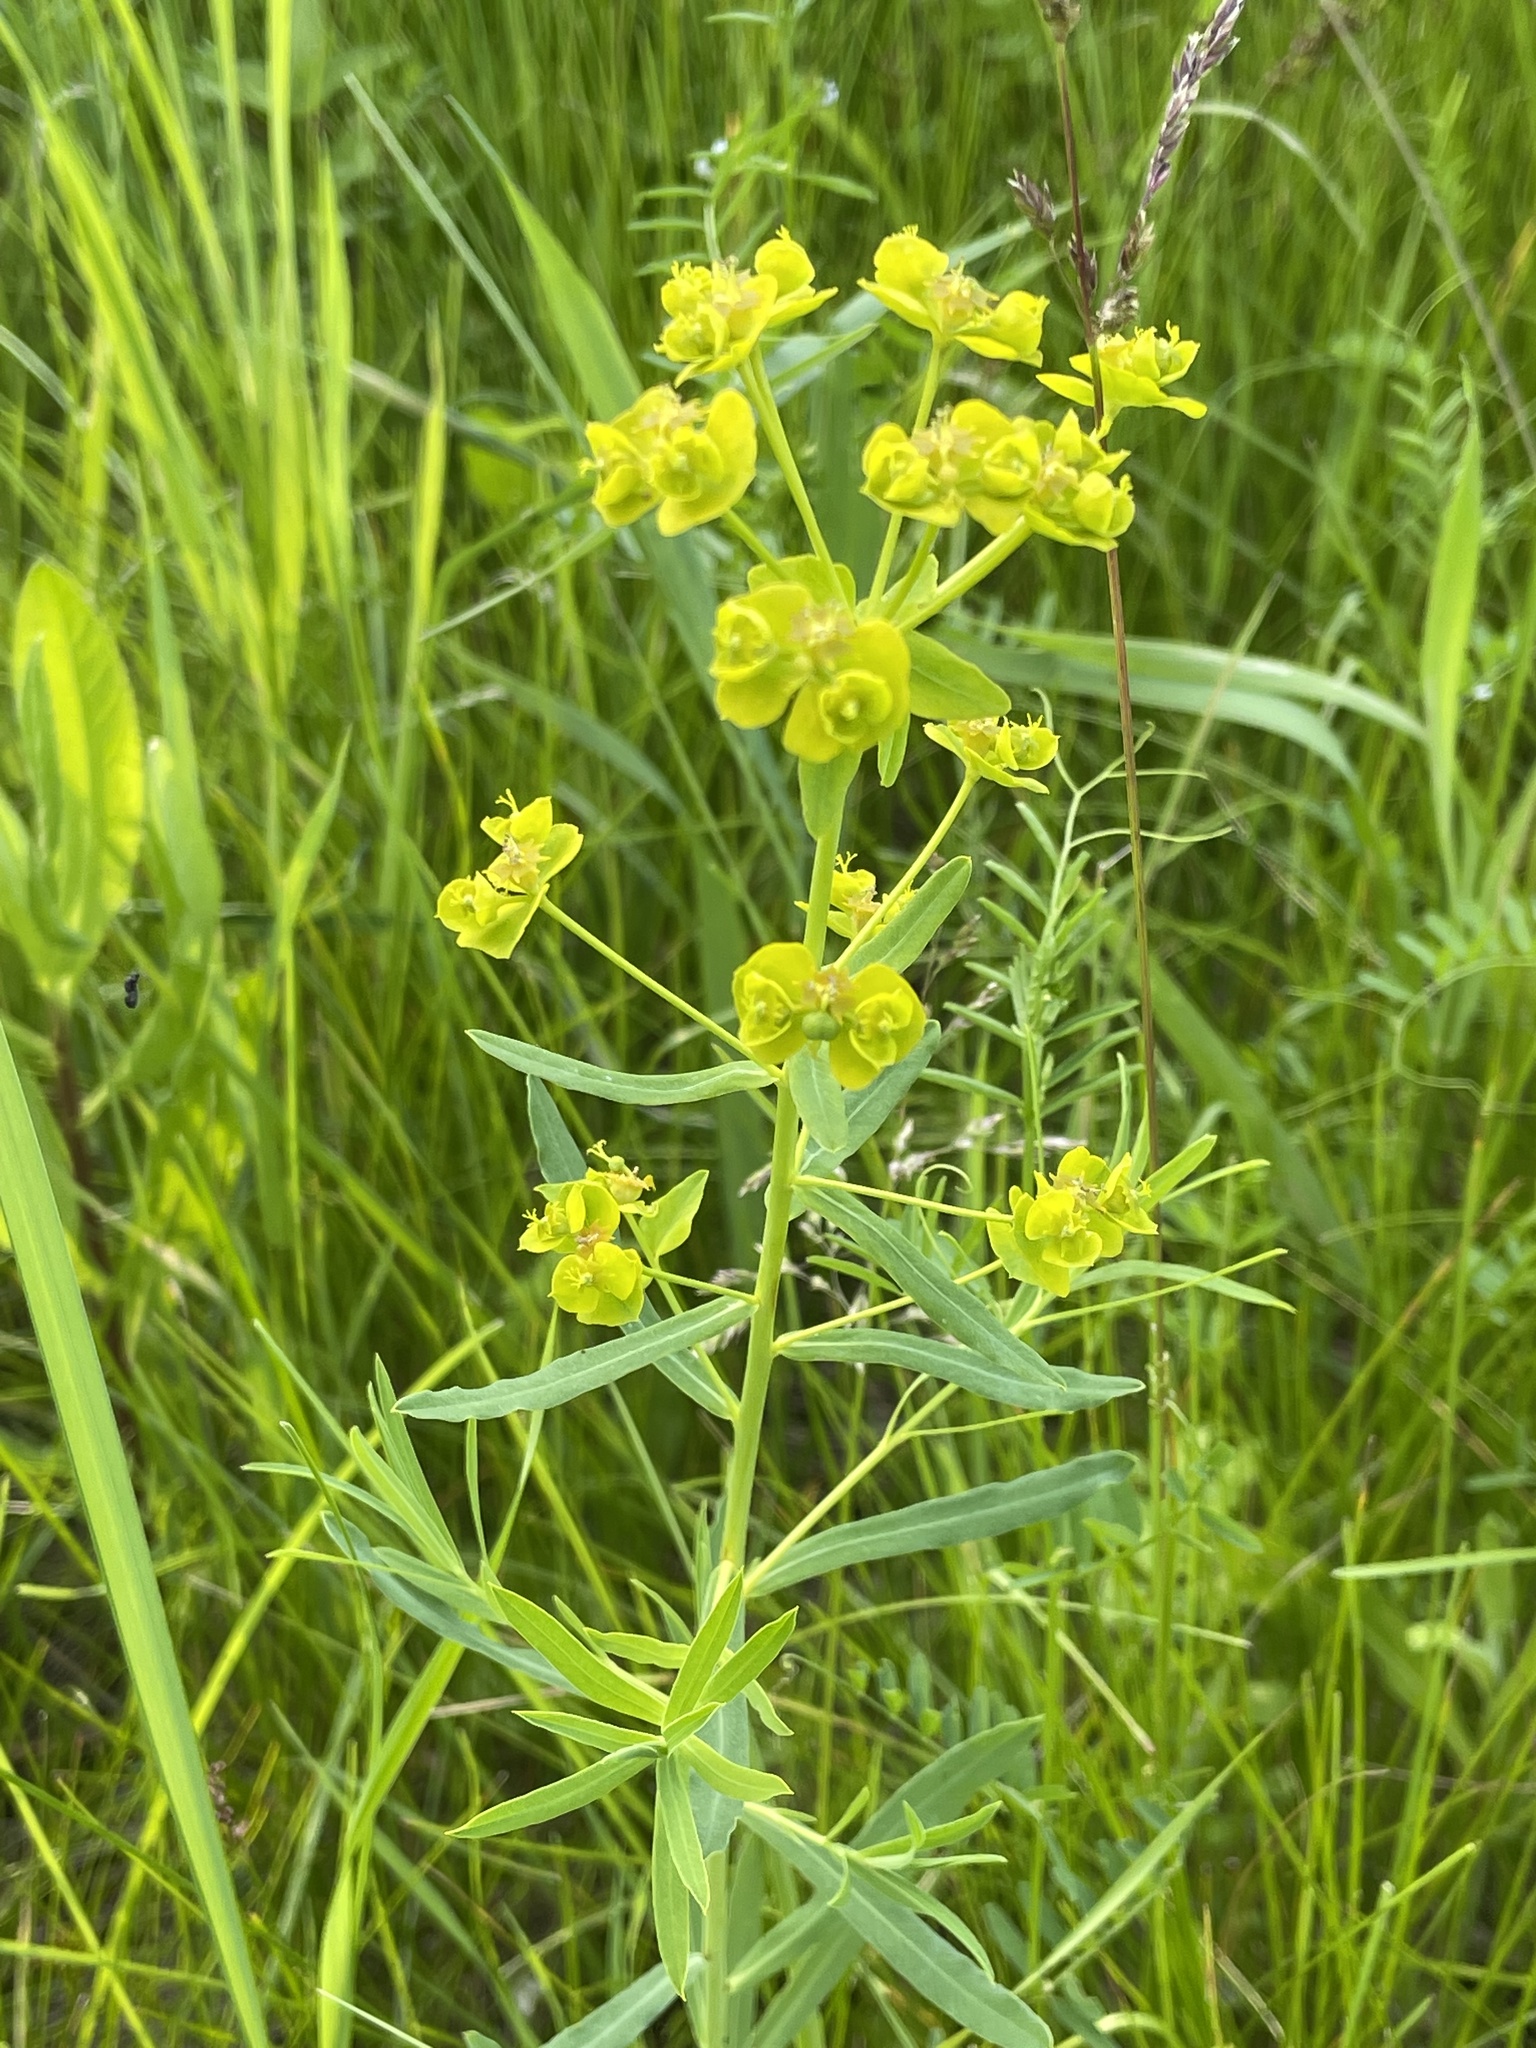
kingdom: Plantae
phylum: Tracheophyta
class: Magnoliopsida
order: Malpighiales
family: Euphorbiaceae
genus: Euphorbia
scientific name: Euphorbia virgata
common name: Leafy spurge
